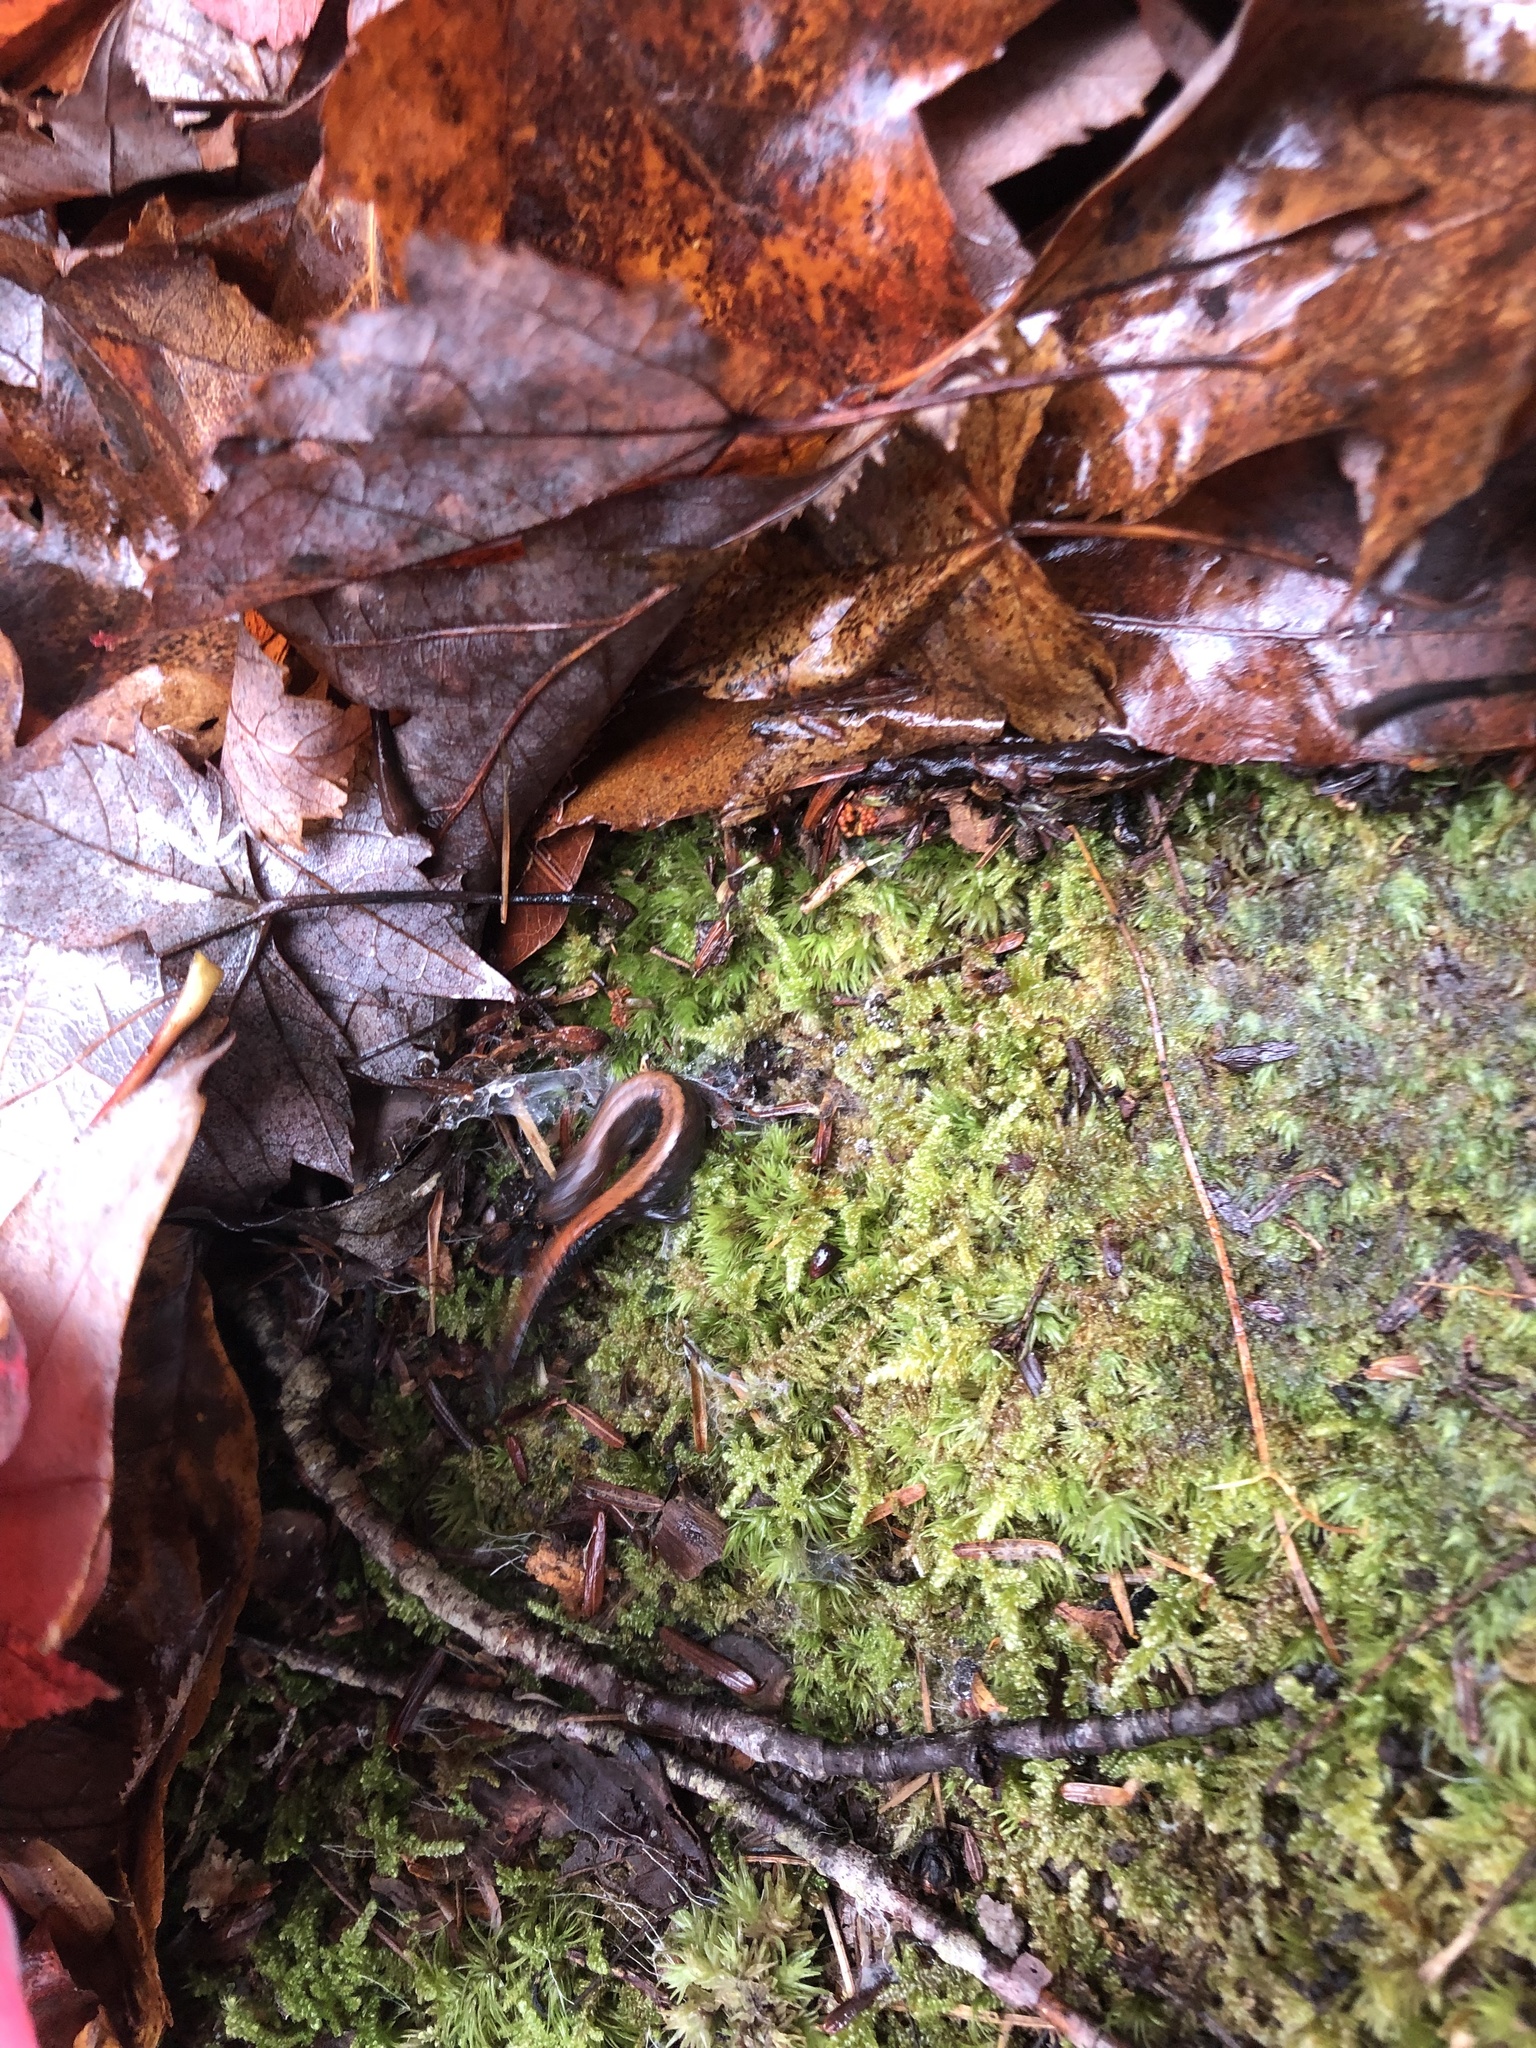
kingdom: Animalia
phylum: Chordata
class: Amphibia
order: Caudata
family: Plethodontidae
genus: Plethodon
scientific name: Plethodon cinereus
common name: Redback salamander
